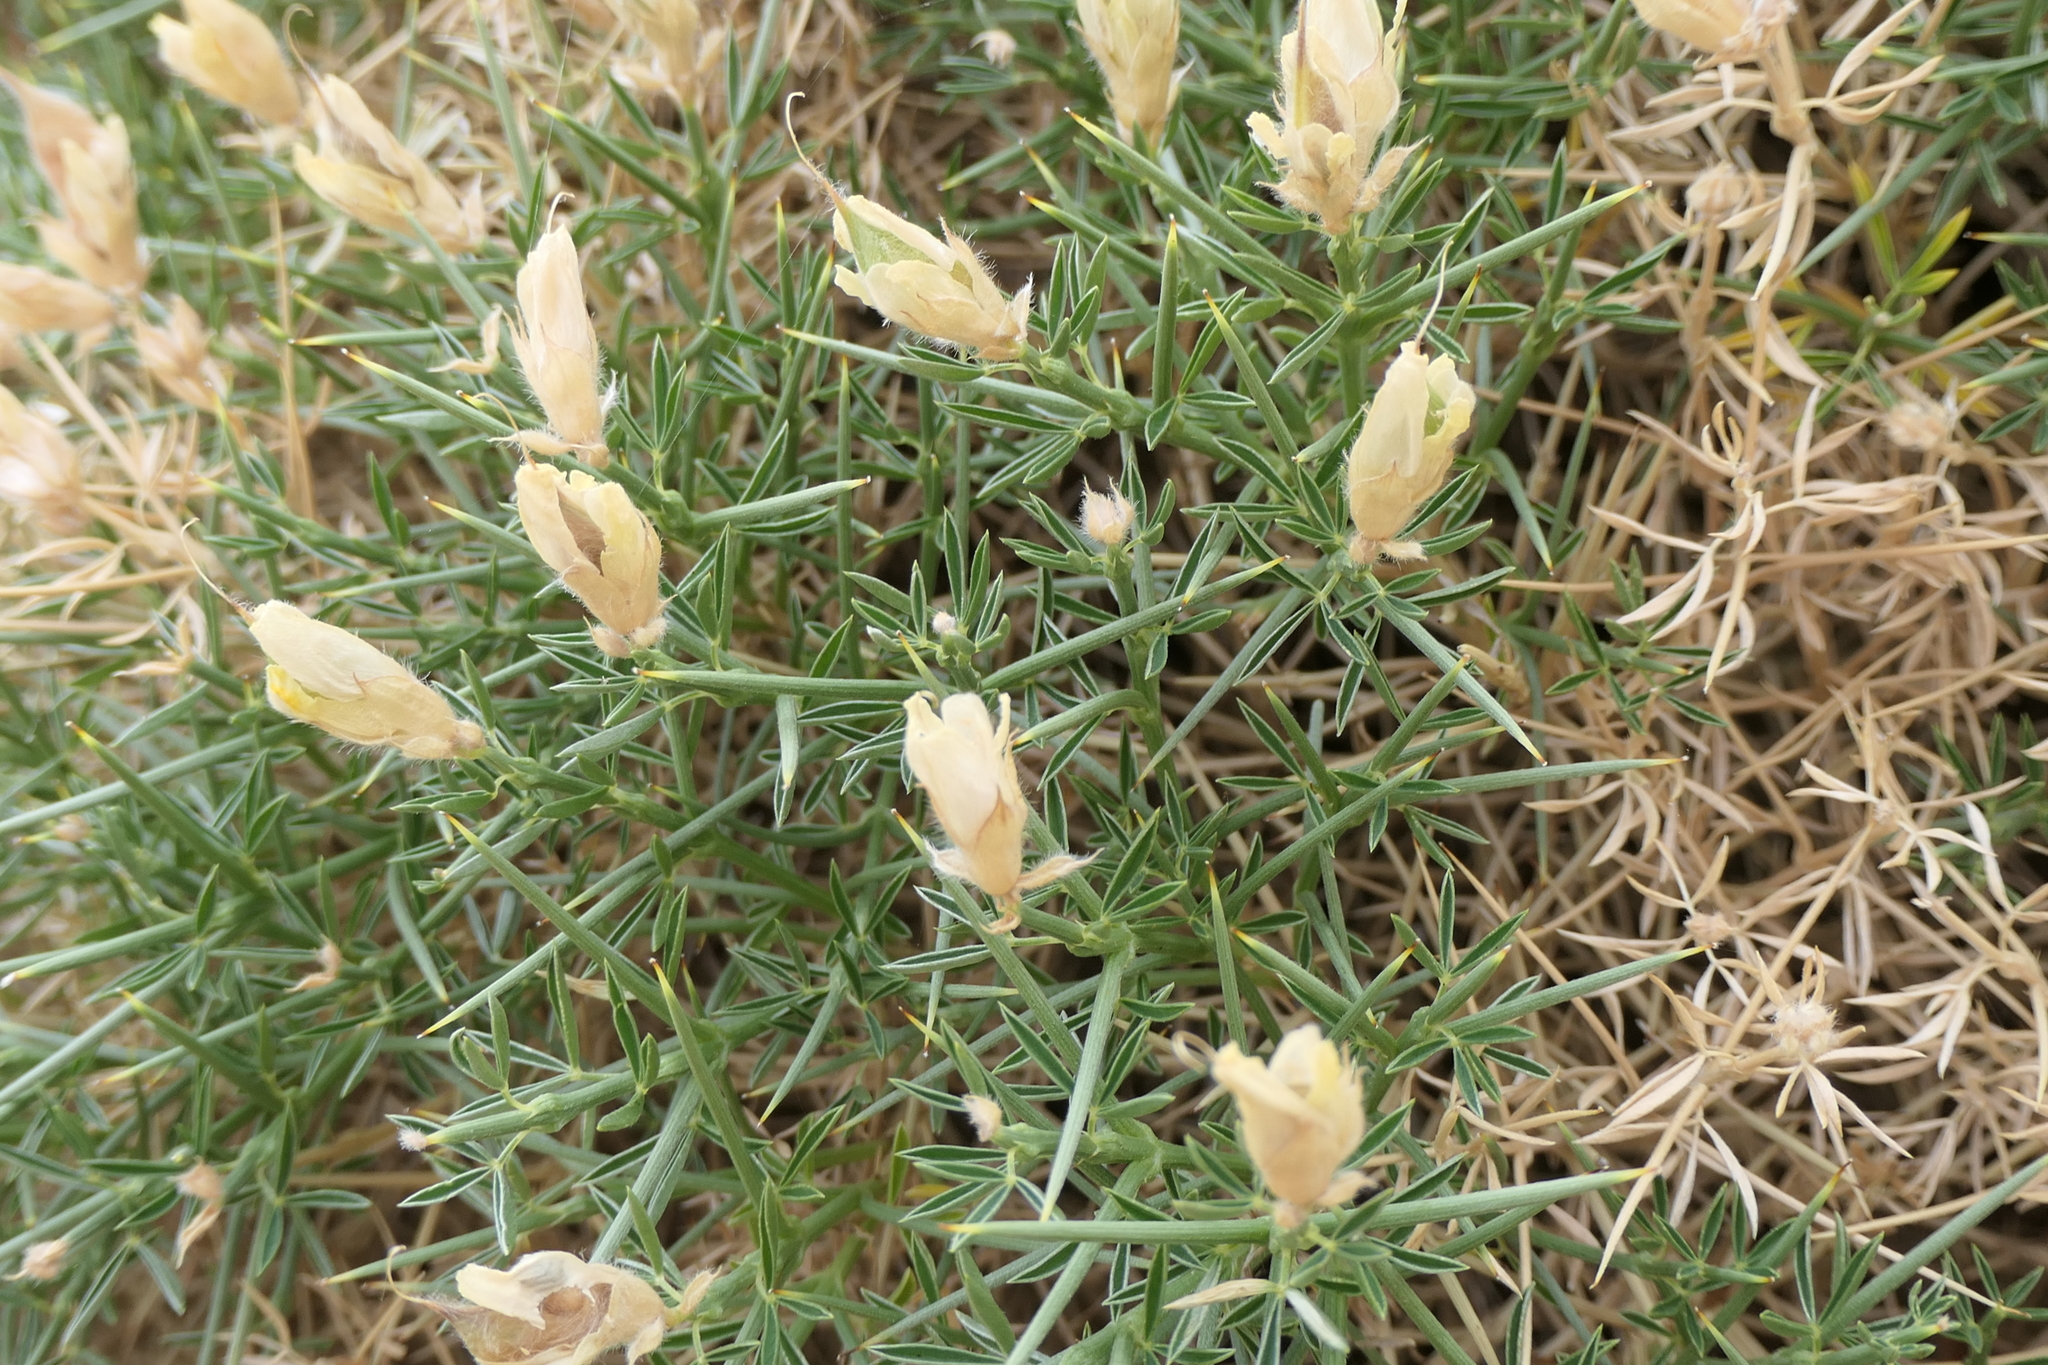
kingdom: Plantae
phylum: Tracheophyta
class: Magnoliopsida
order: Fabales
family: Fabaceae
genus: Echinospartum
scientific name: Echinospartum horridum
